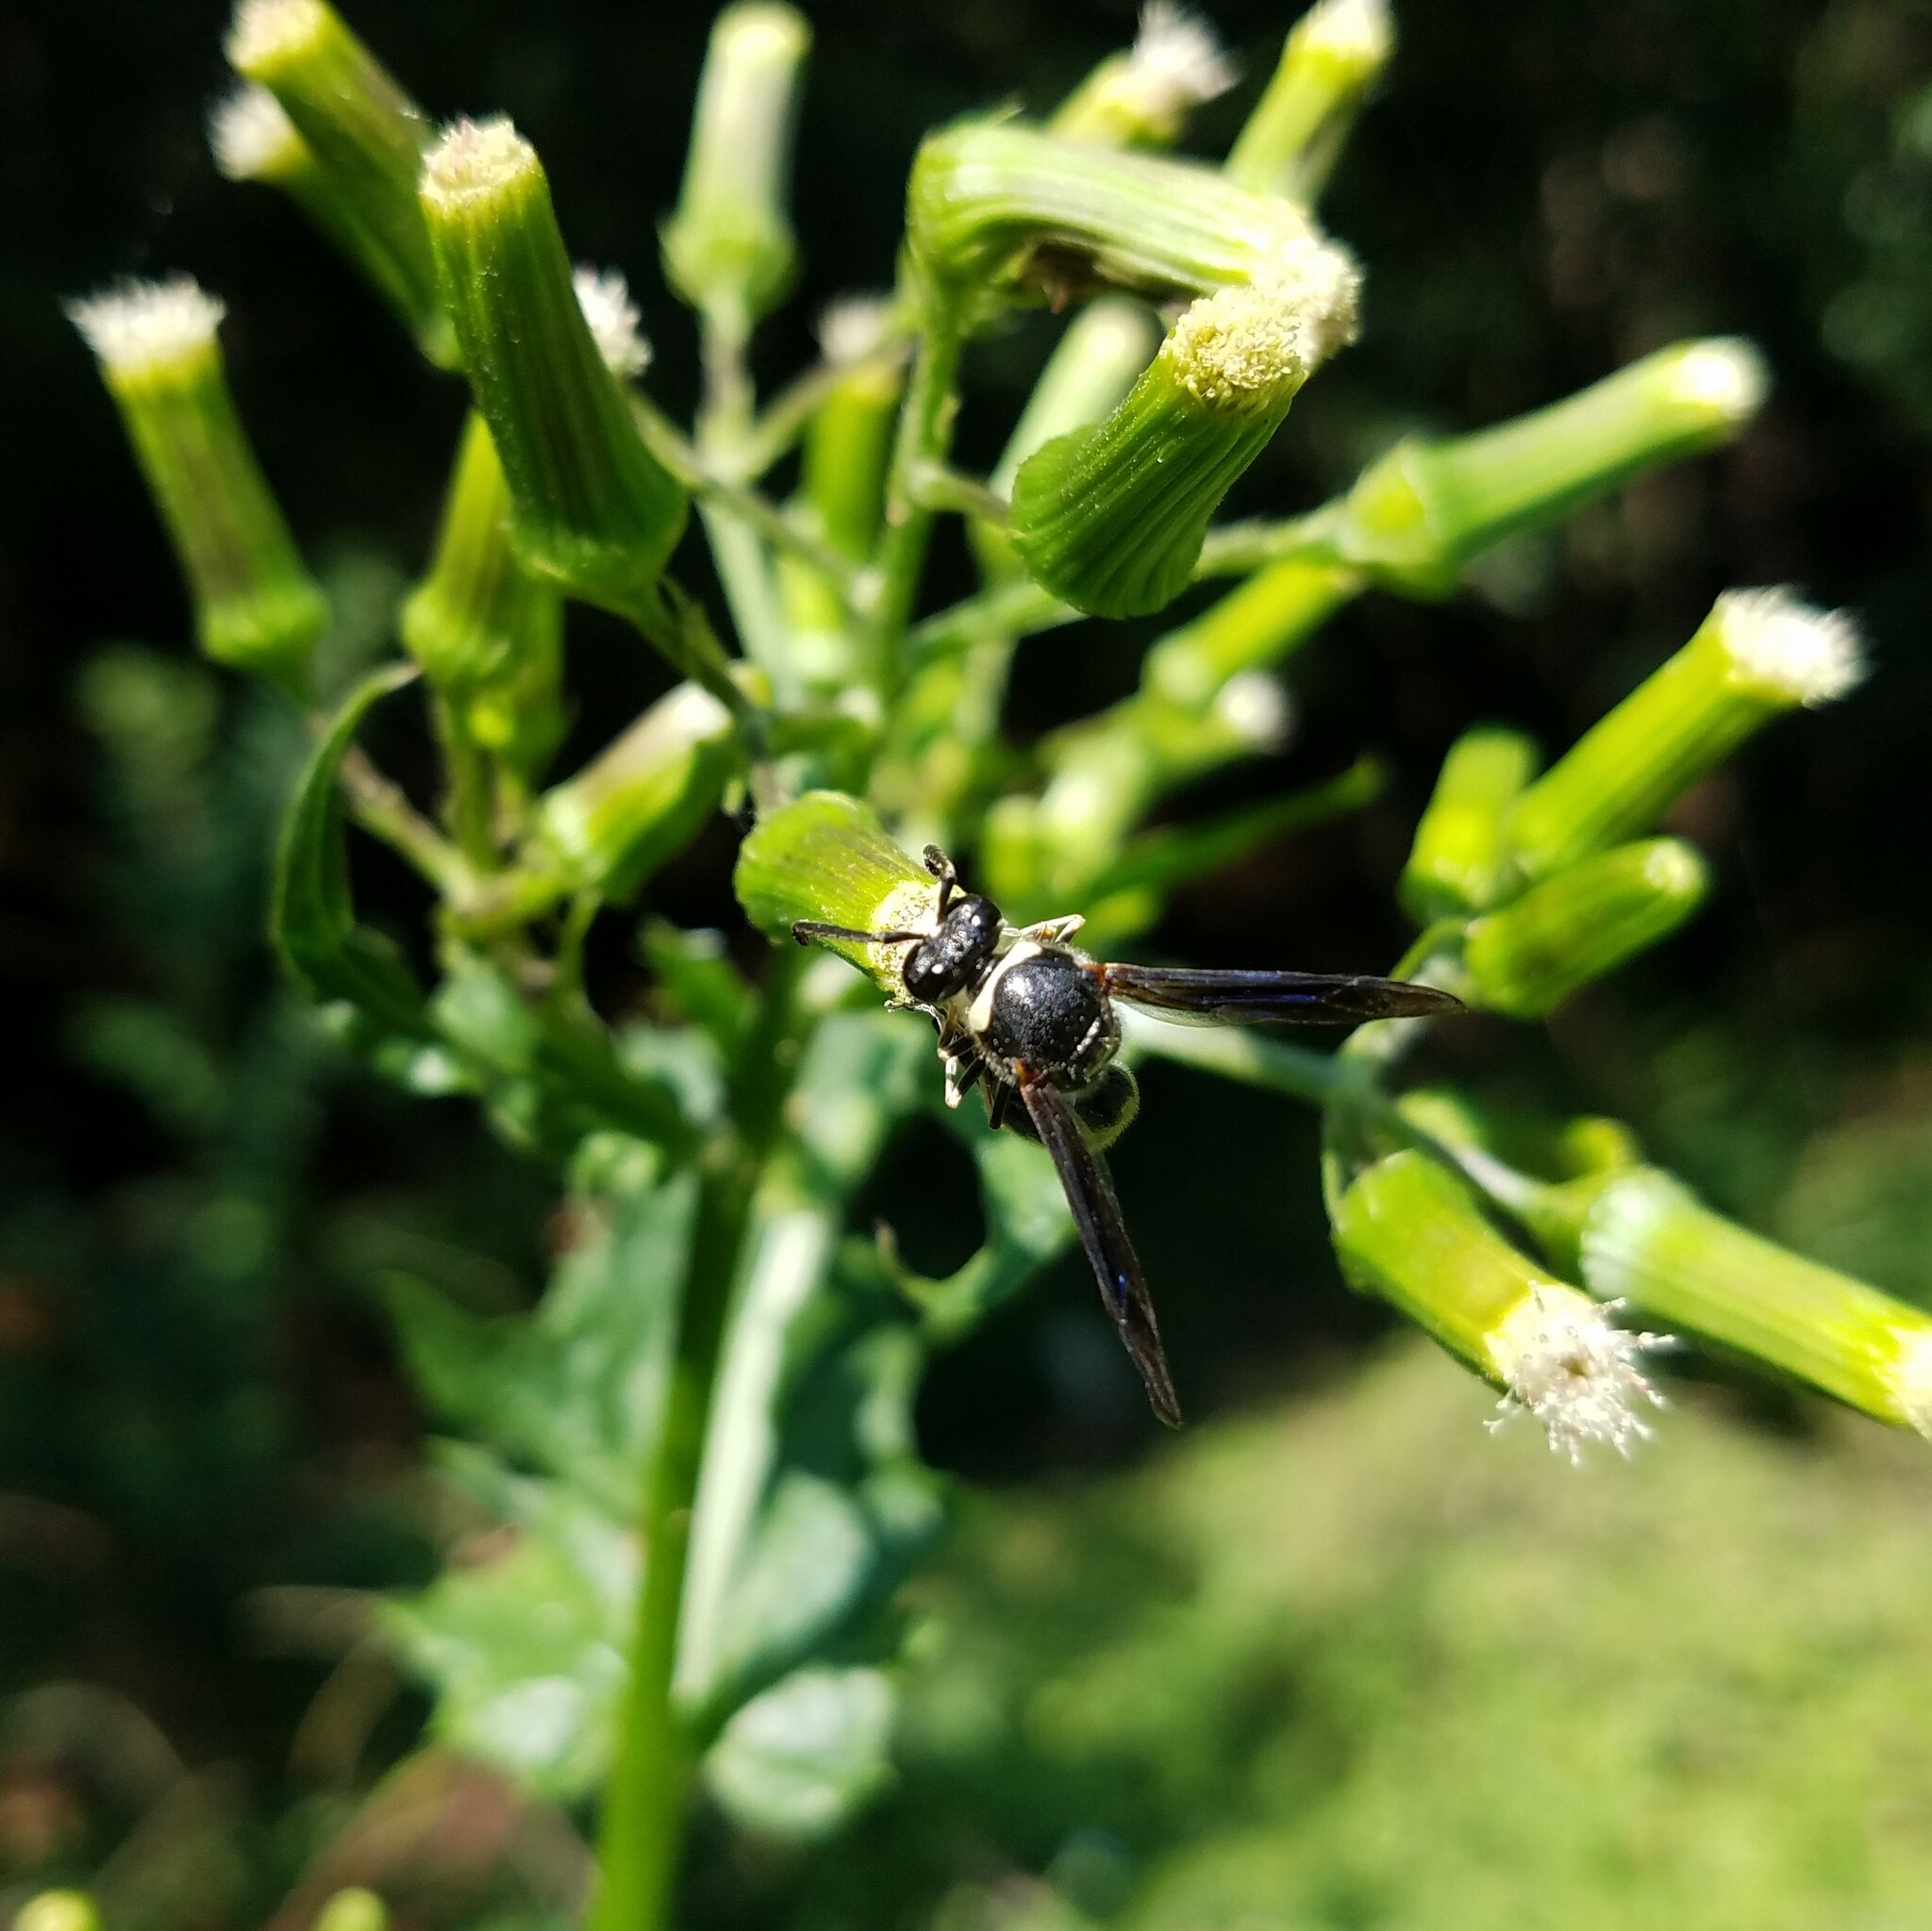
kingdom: Animalia
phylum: Arthropoda
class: Insecta
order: Hymenoptera
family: Vespidae
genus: Eumenes
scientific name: Eumenes fraternus
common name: Fraternal potter wasp
